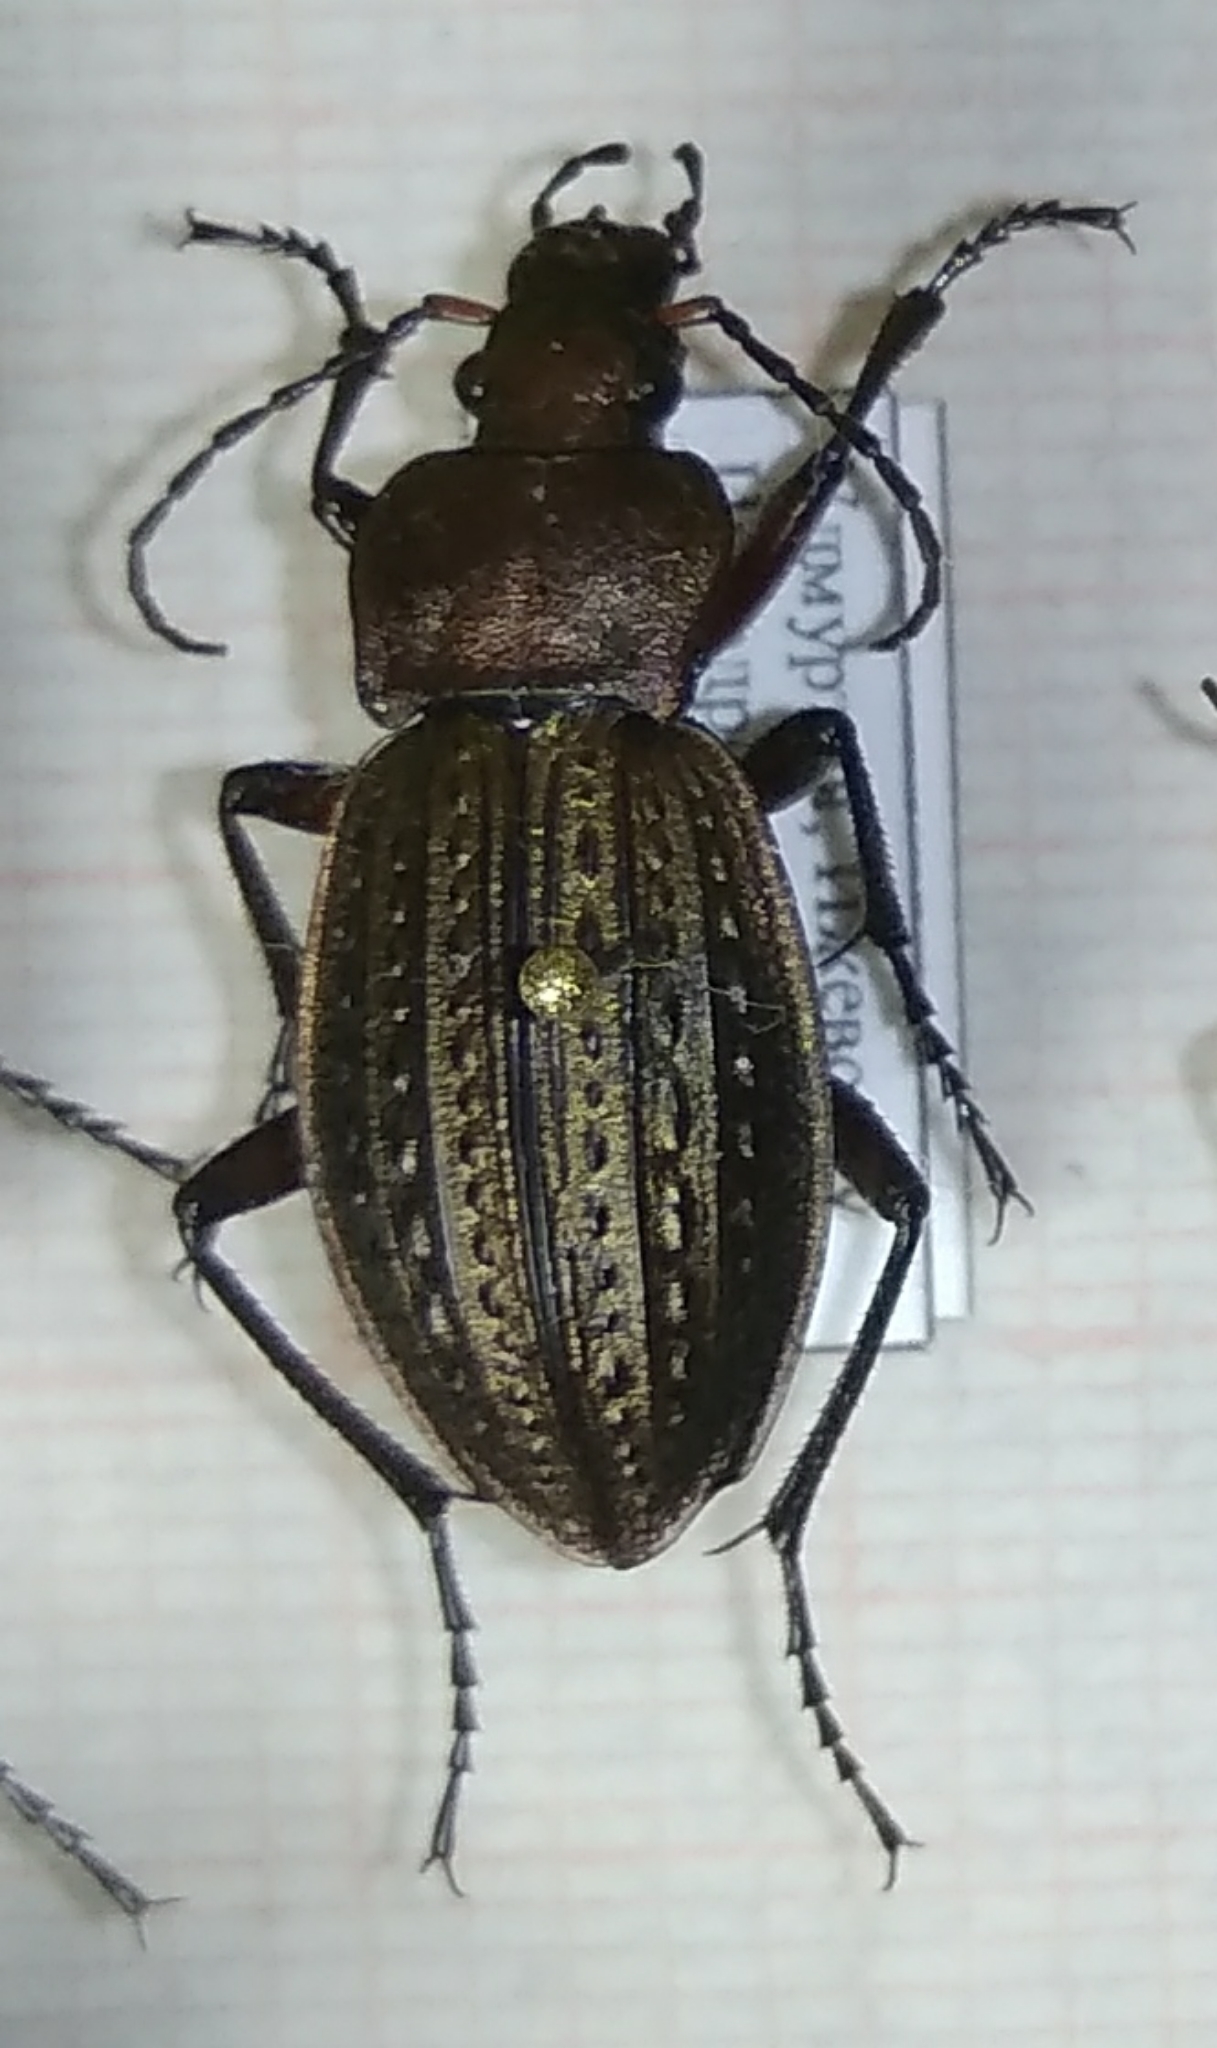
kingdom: Animalia
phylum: Arthropoda
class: Insecta
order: Coleoptera
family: Carabidae
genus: Carabus
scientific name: Carabus cancellatus
